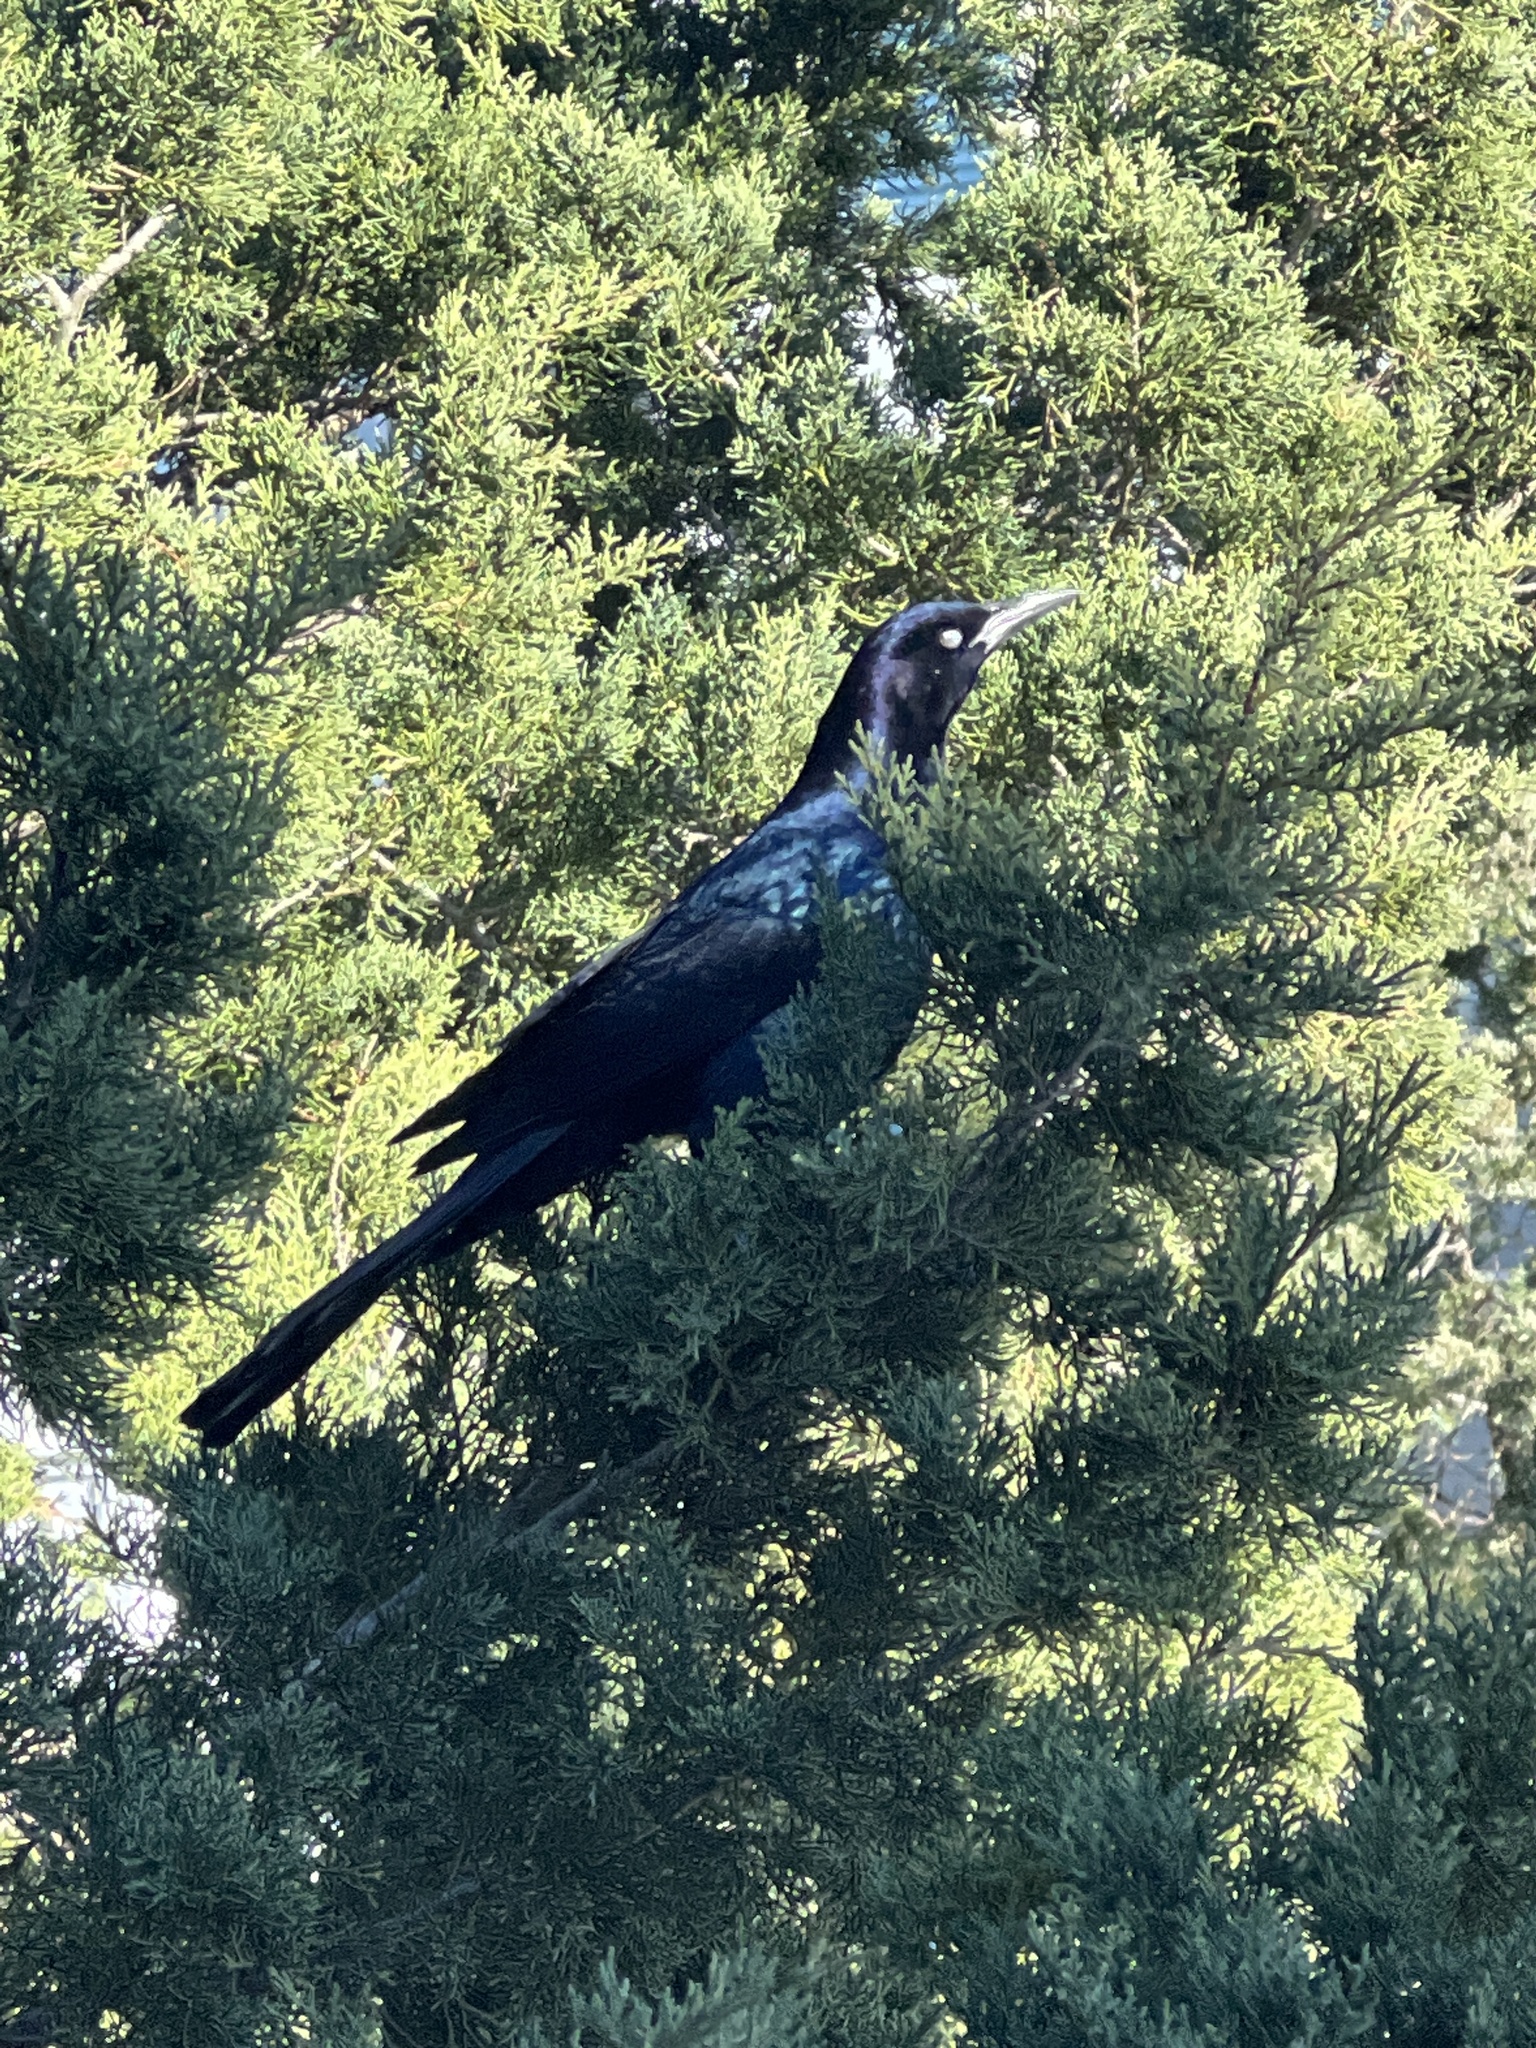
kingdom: Animalia
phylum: Chordata
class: Aves
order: Passeriformes
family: Icteridae
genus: Quiscalus
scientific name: Quiscalus major
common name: Boat-tailed grackle
